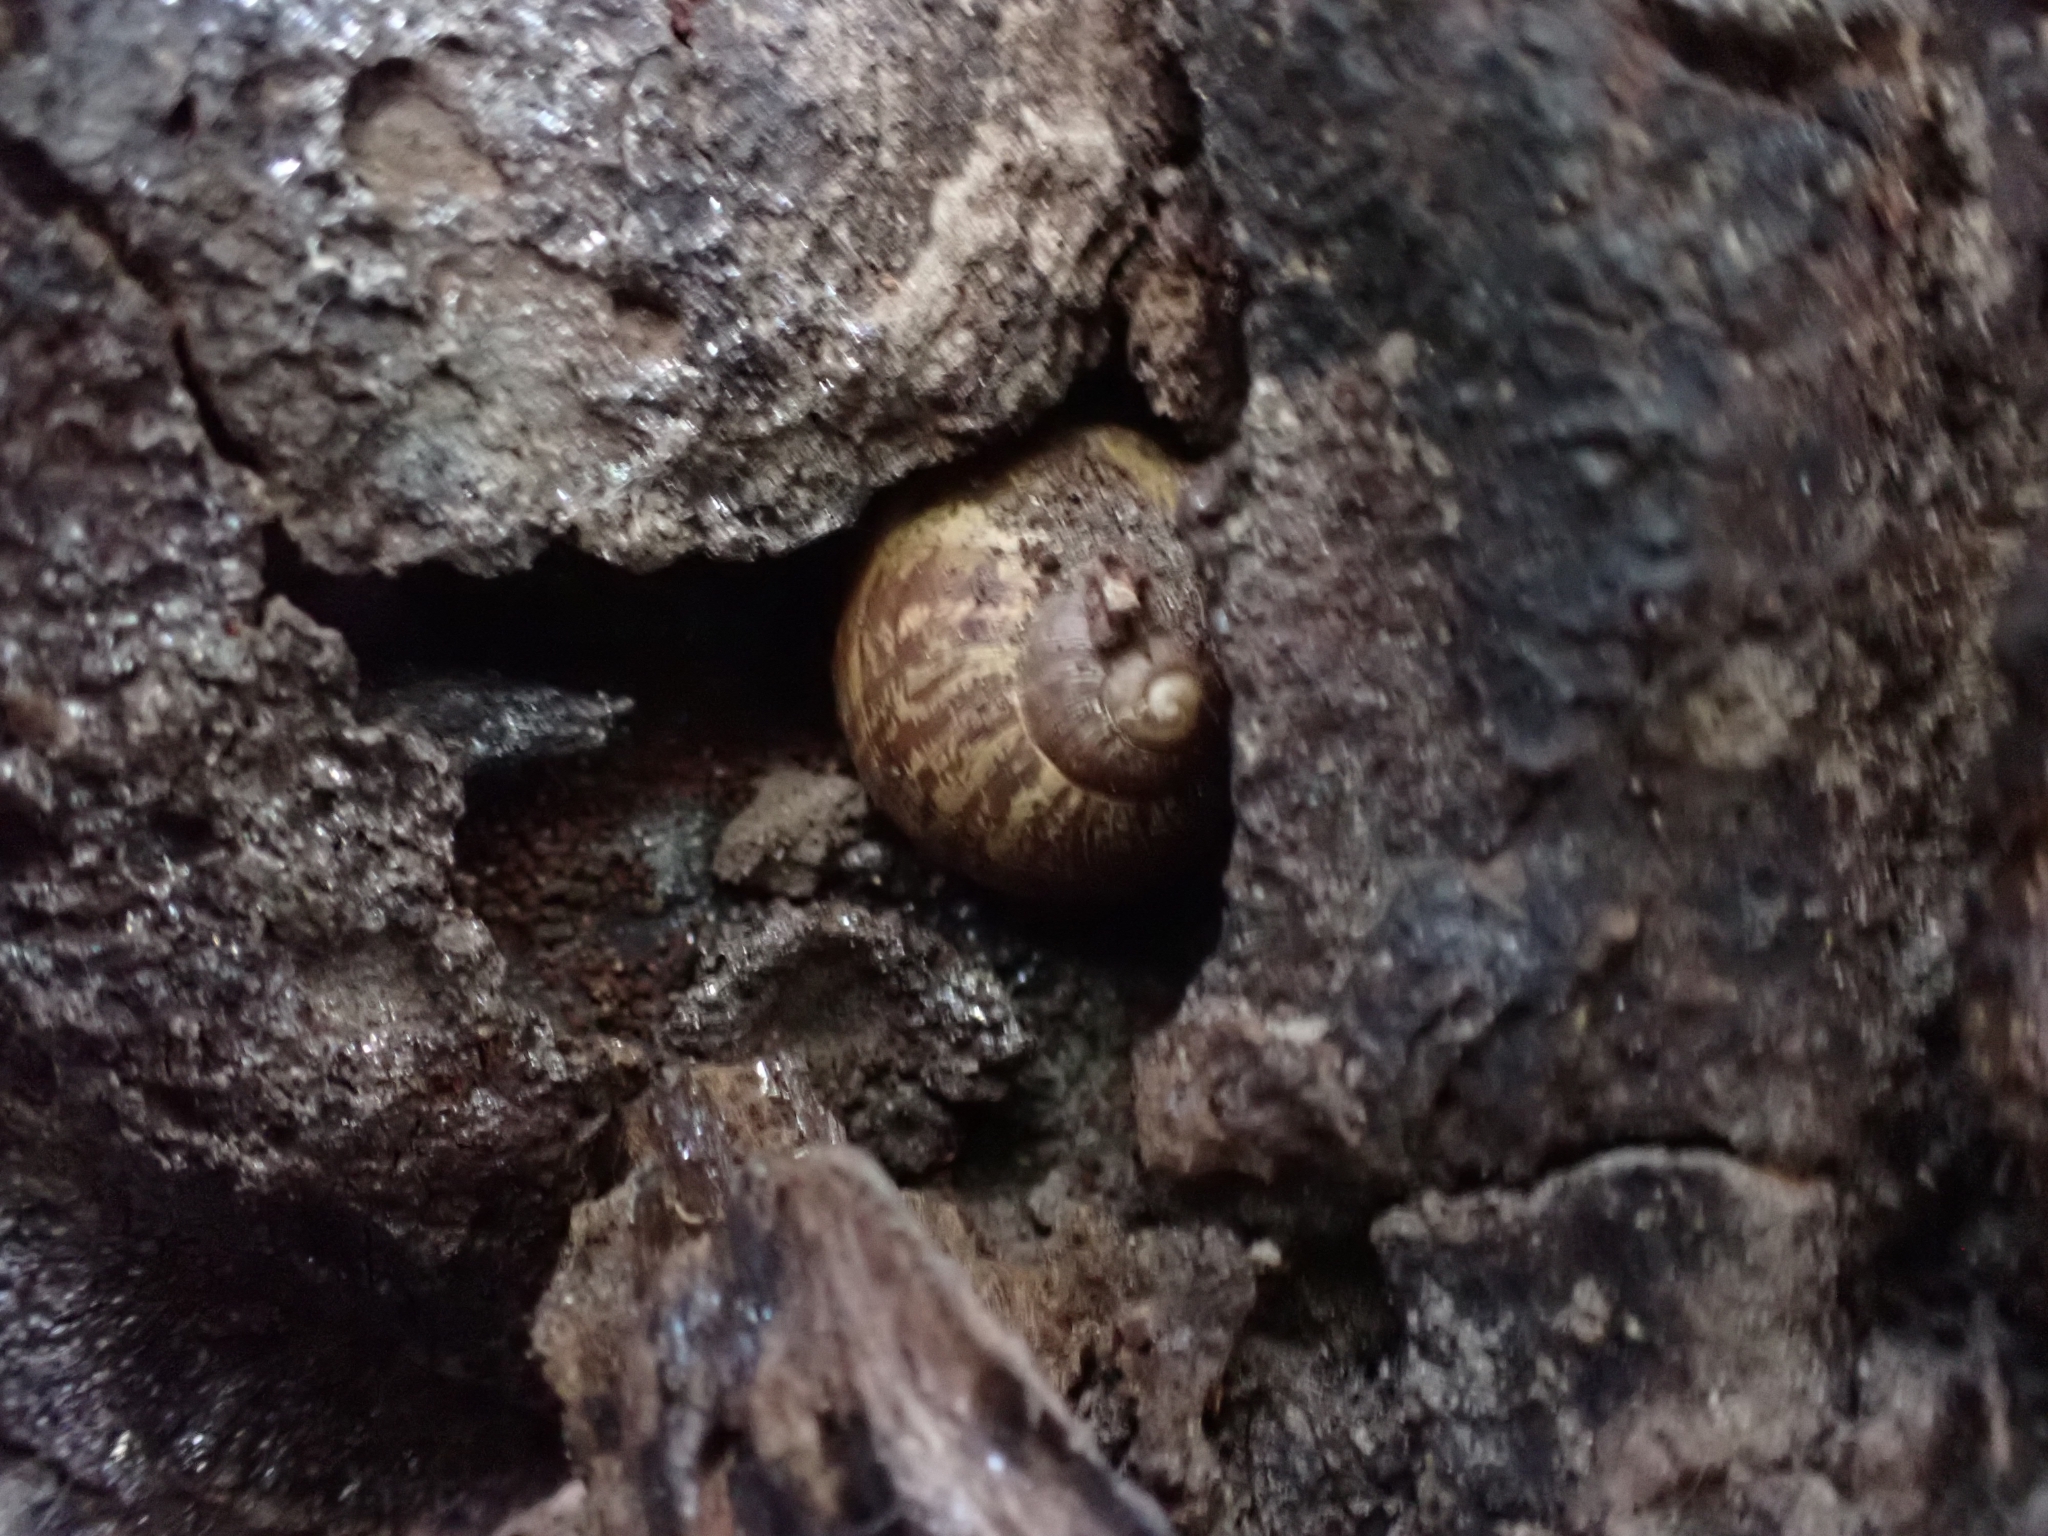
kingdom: Animalia
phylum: Mollusca
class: Gastropoda
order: Stylommatophora
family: Helicidae
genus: Cornu
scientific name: Cornu aspersum
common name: Brown garden snail
